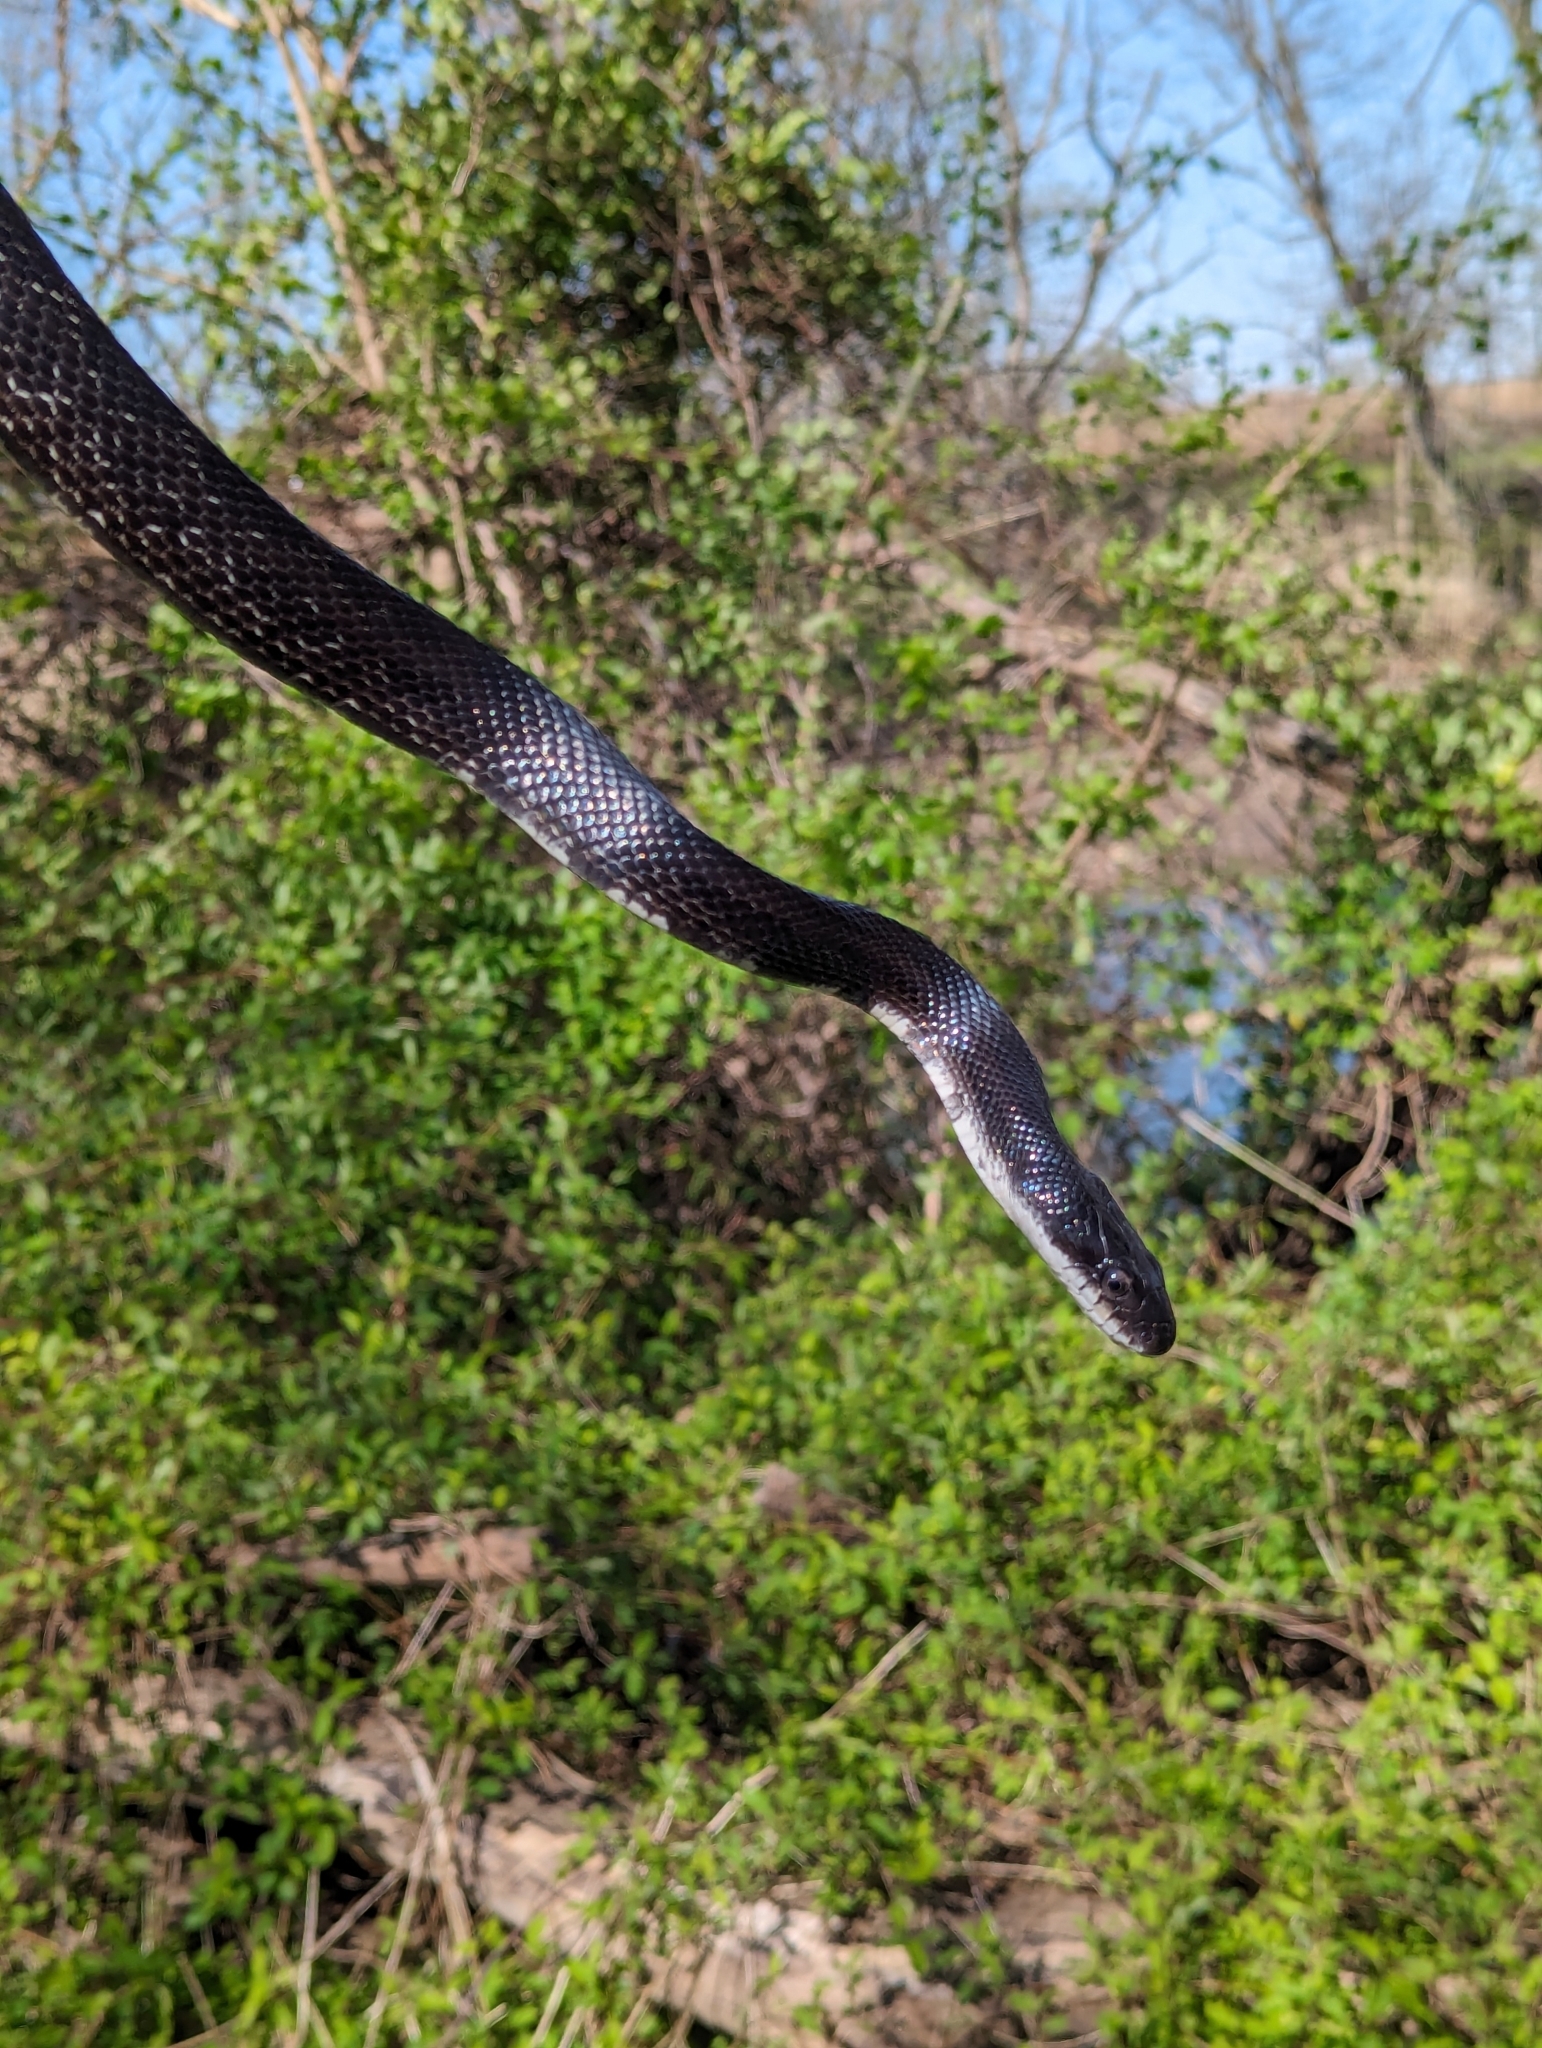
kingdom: Animalia
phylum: Chordata
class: Squamata
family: Colubridae
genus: Pantherophis
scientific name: Pantherophis alleghaniensis
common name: Eastern rat snake
